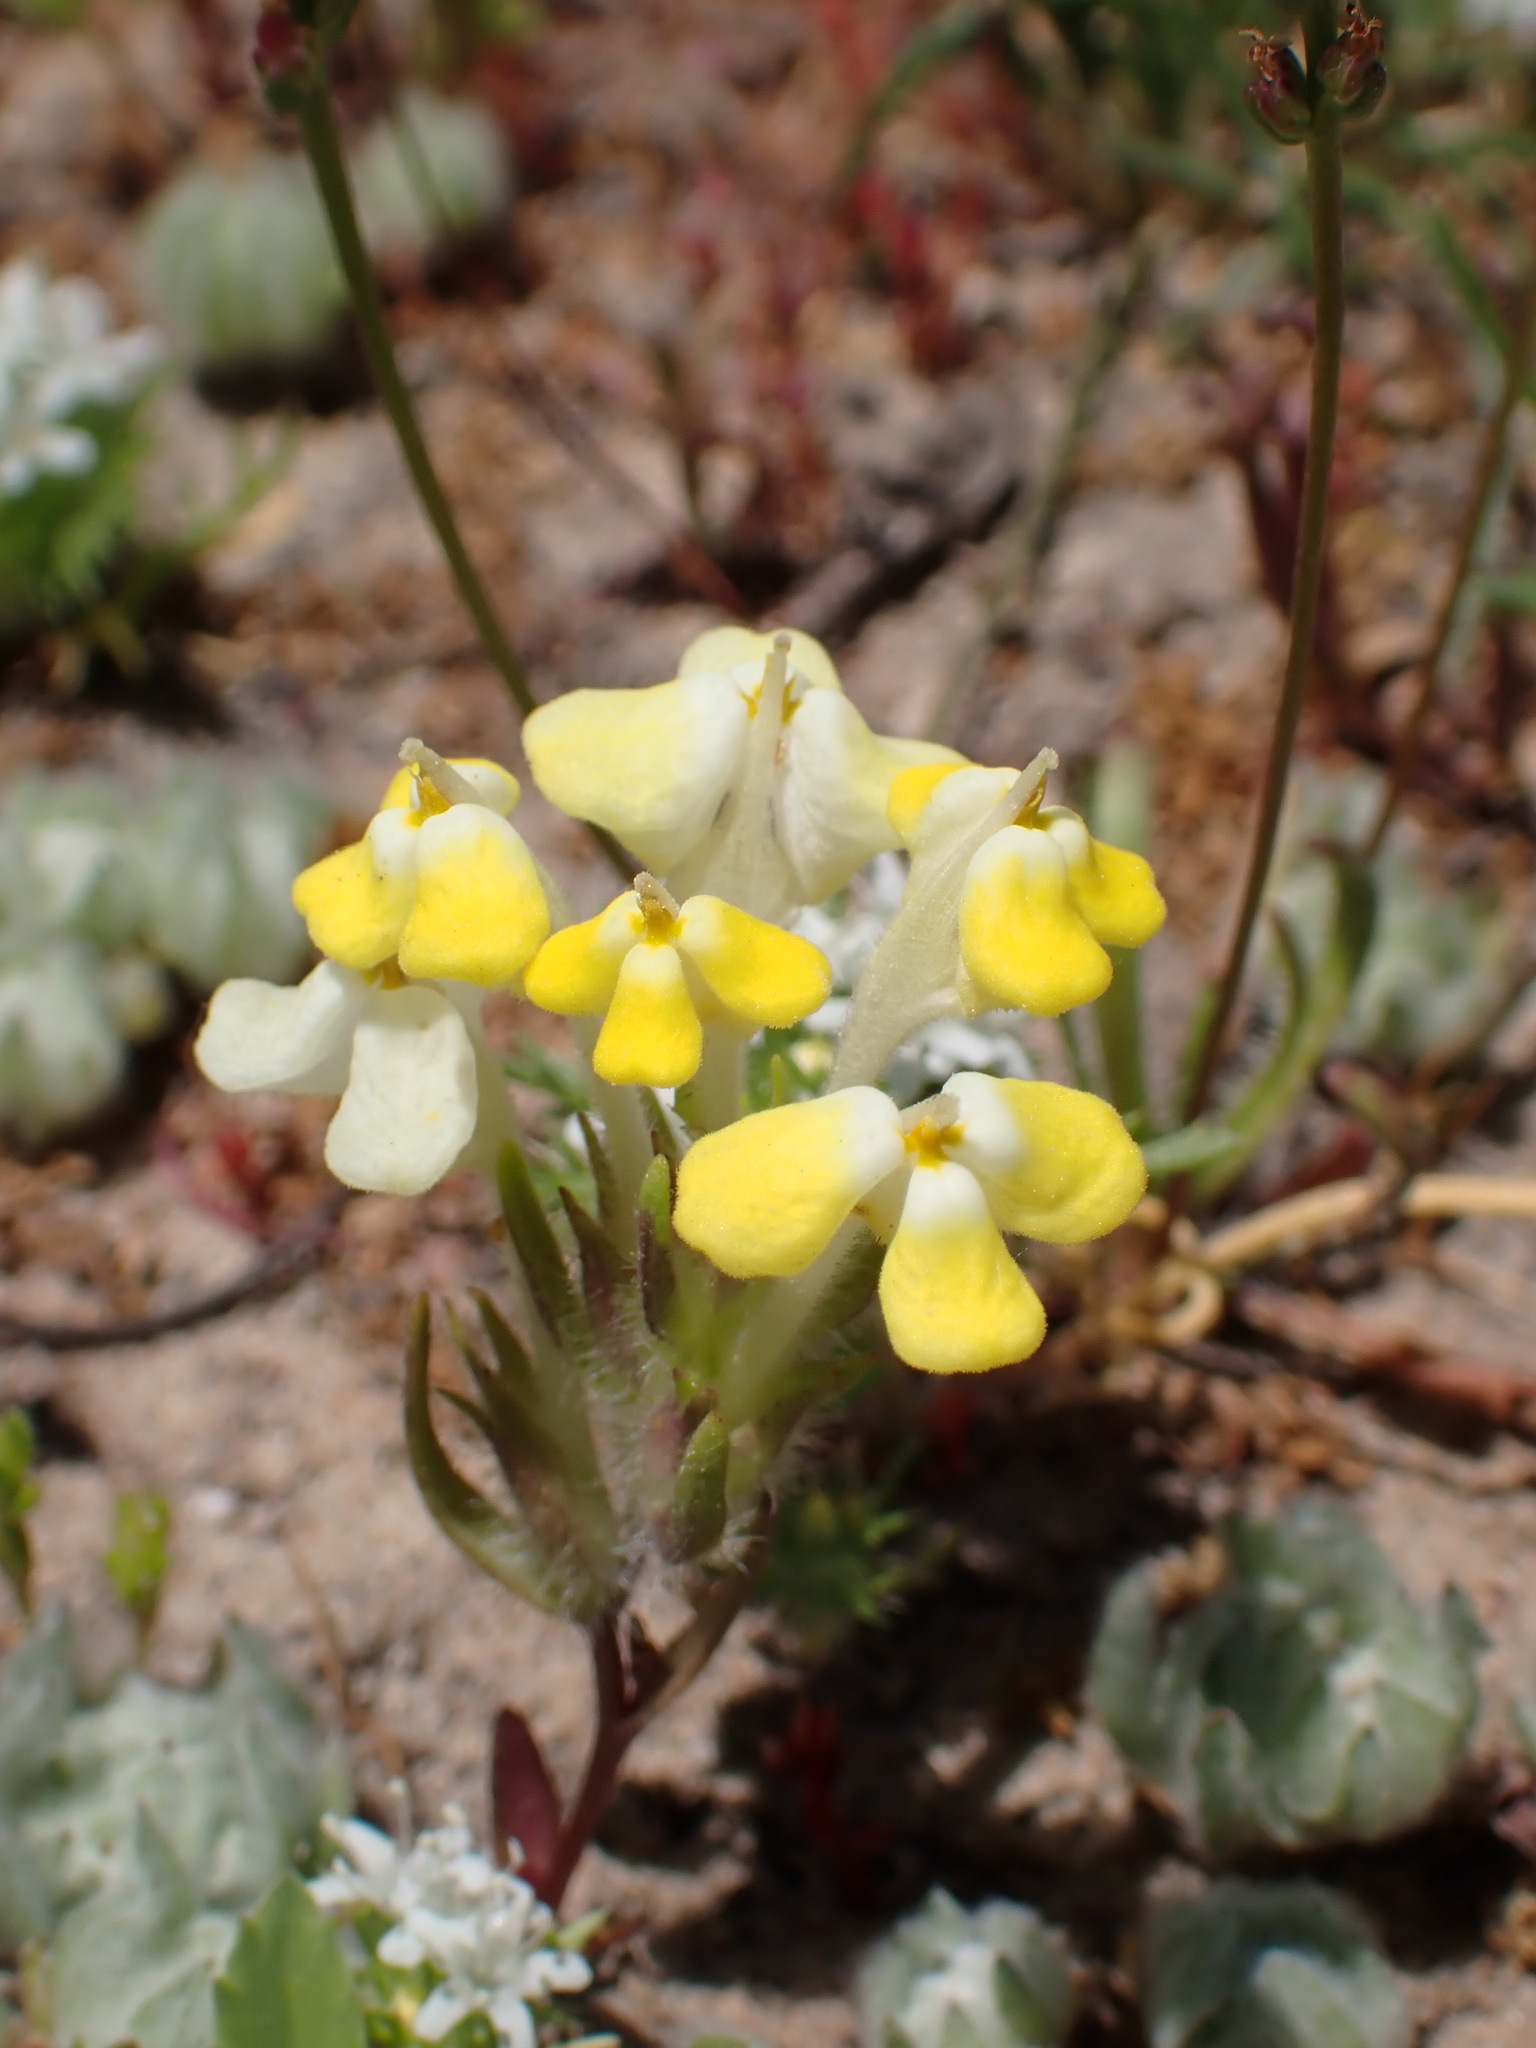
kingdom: Plantae
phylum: Tracheophyta
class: Magnoliopsida
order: Lamiales
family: Orobanchaceae
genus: Castilleja
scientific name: Castilleja campestris
